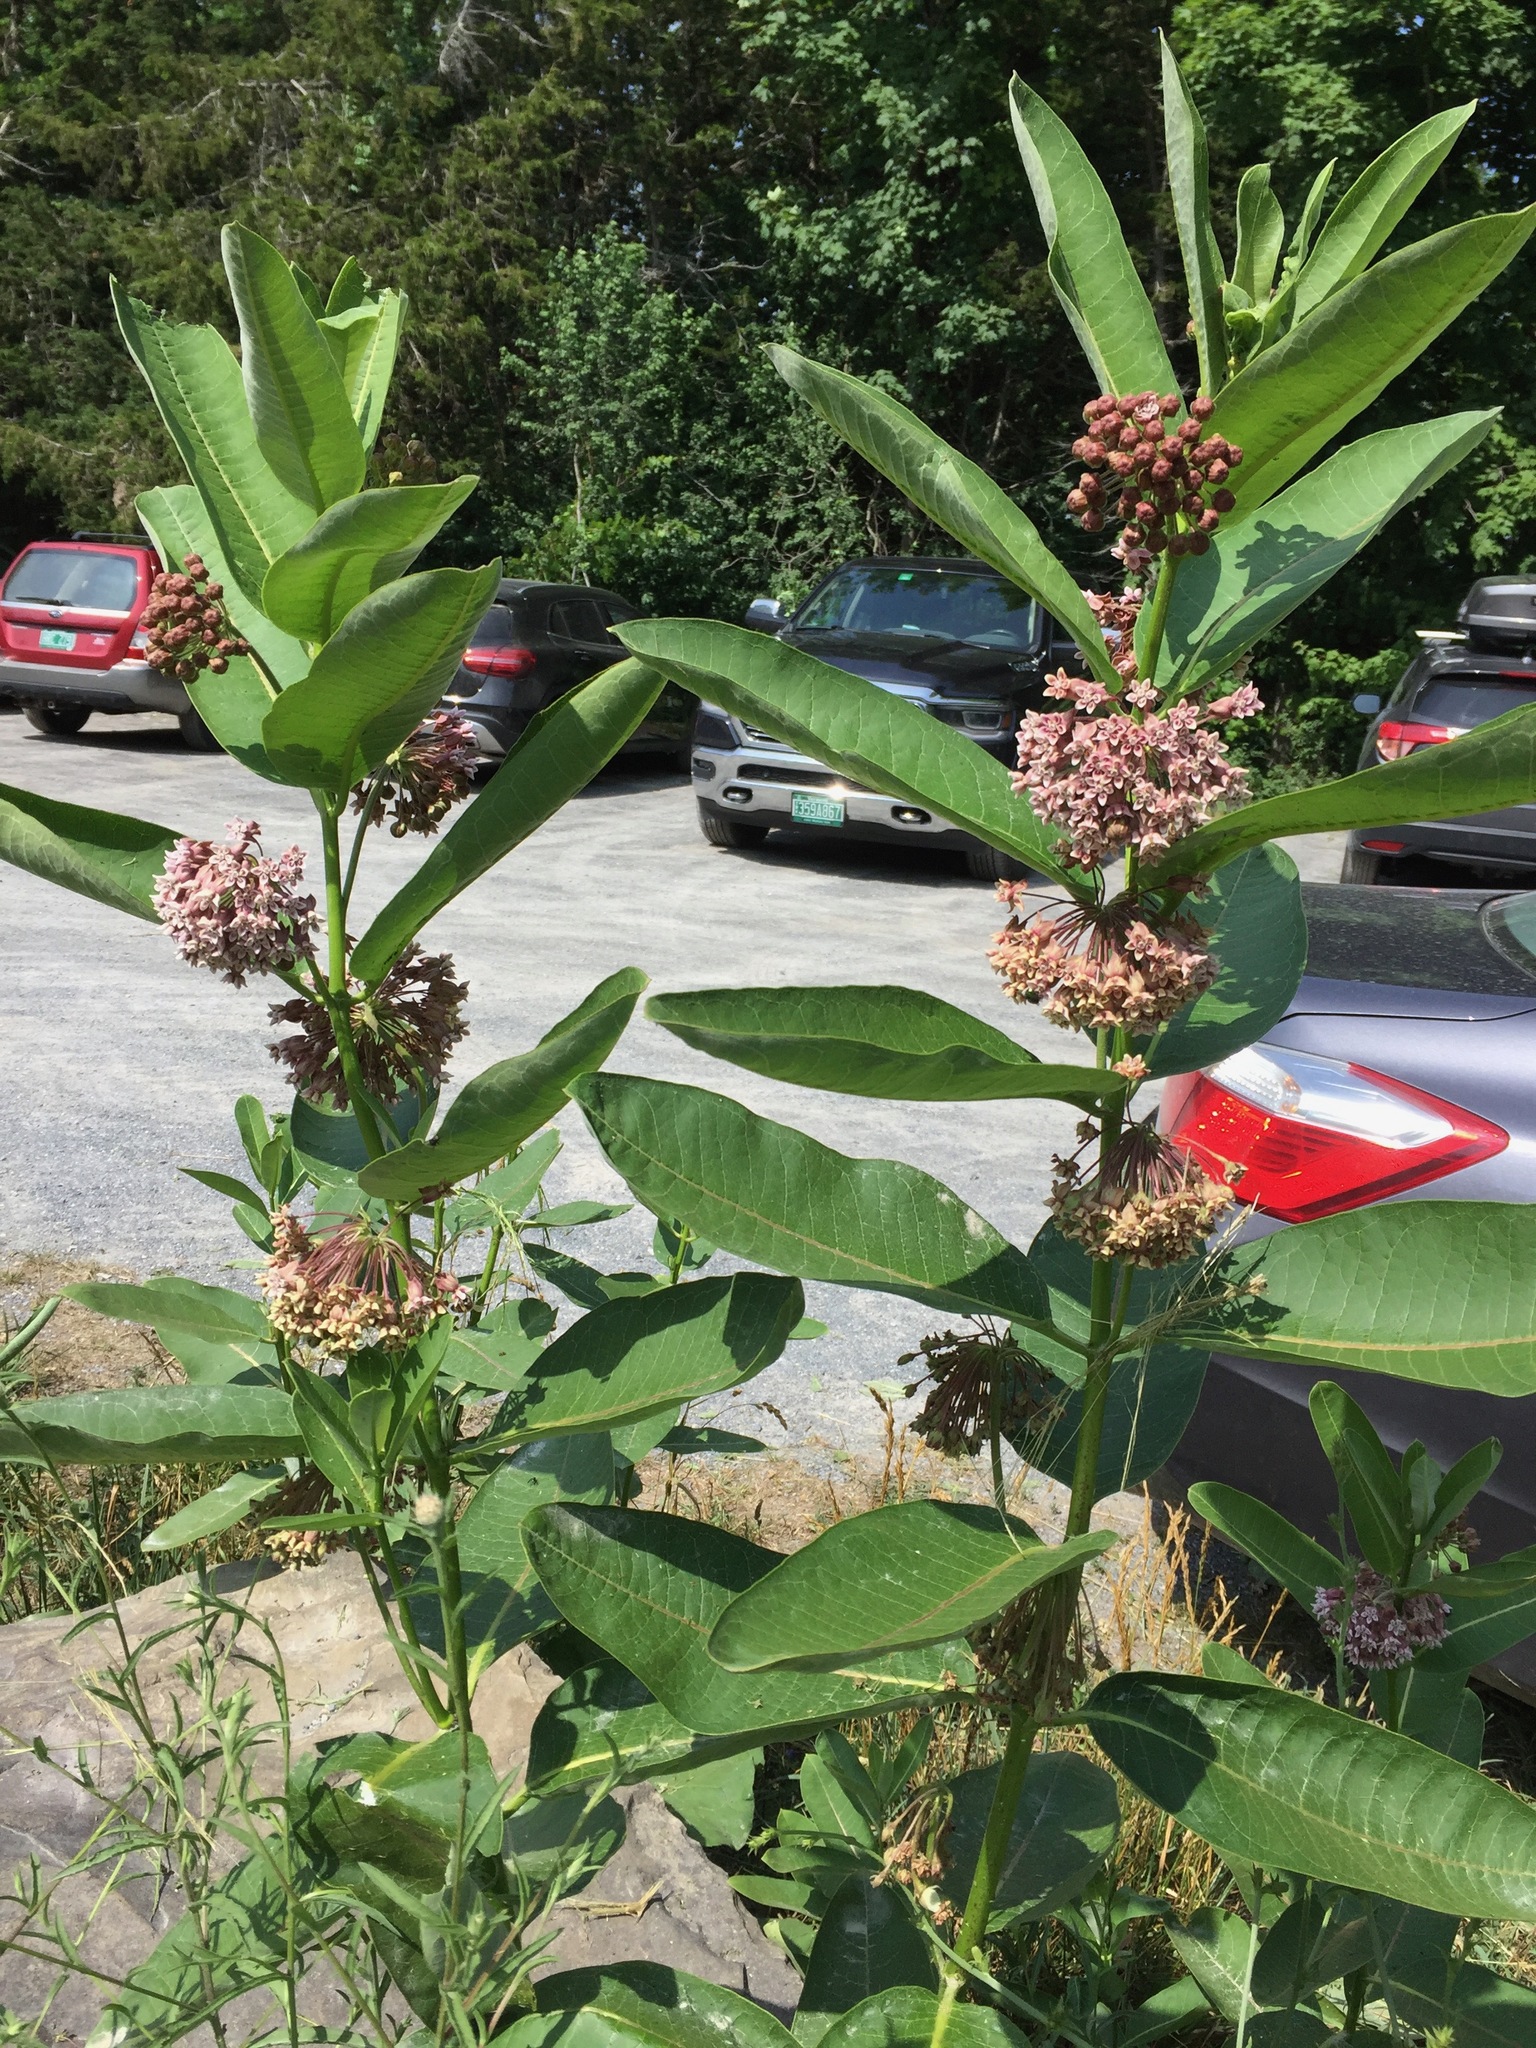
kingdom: Plantae
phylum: Tracheophyta
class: Magnoliopsida
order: Gentianales
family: Apocynaceae
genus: Asclepias
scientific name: Asclepias syriaca
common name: Common milkweed
